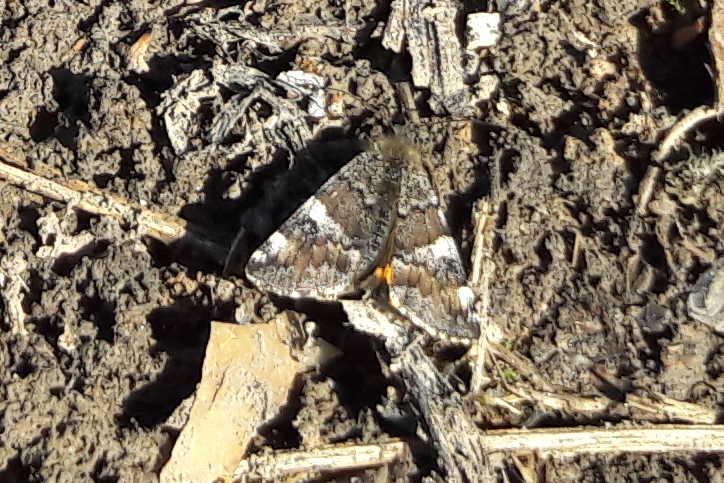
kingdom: Animalia
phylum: Arthropoda
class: Insecta
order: Lepidoptera
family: Geometridae
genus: Archiearis
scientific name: Archiearis parthenias
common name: Orange underwing
